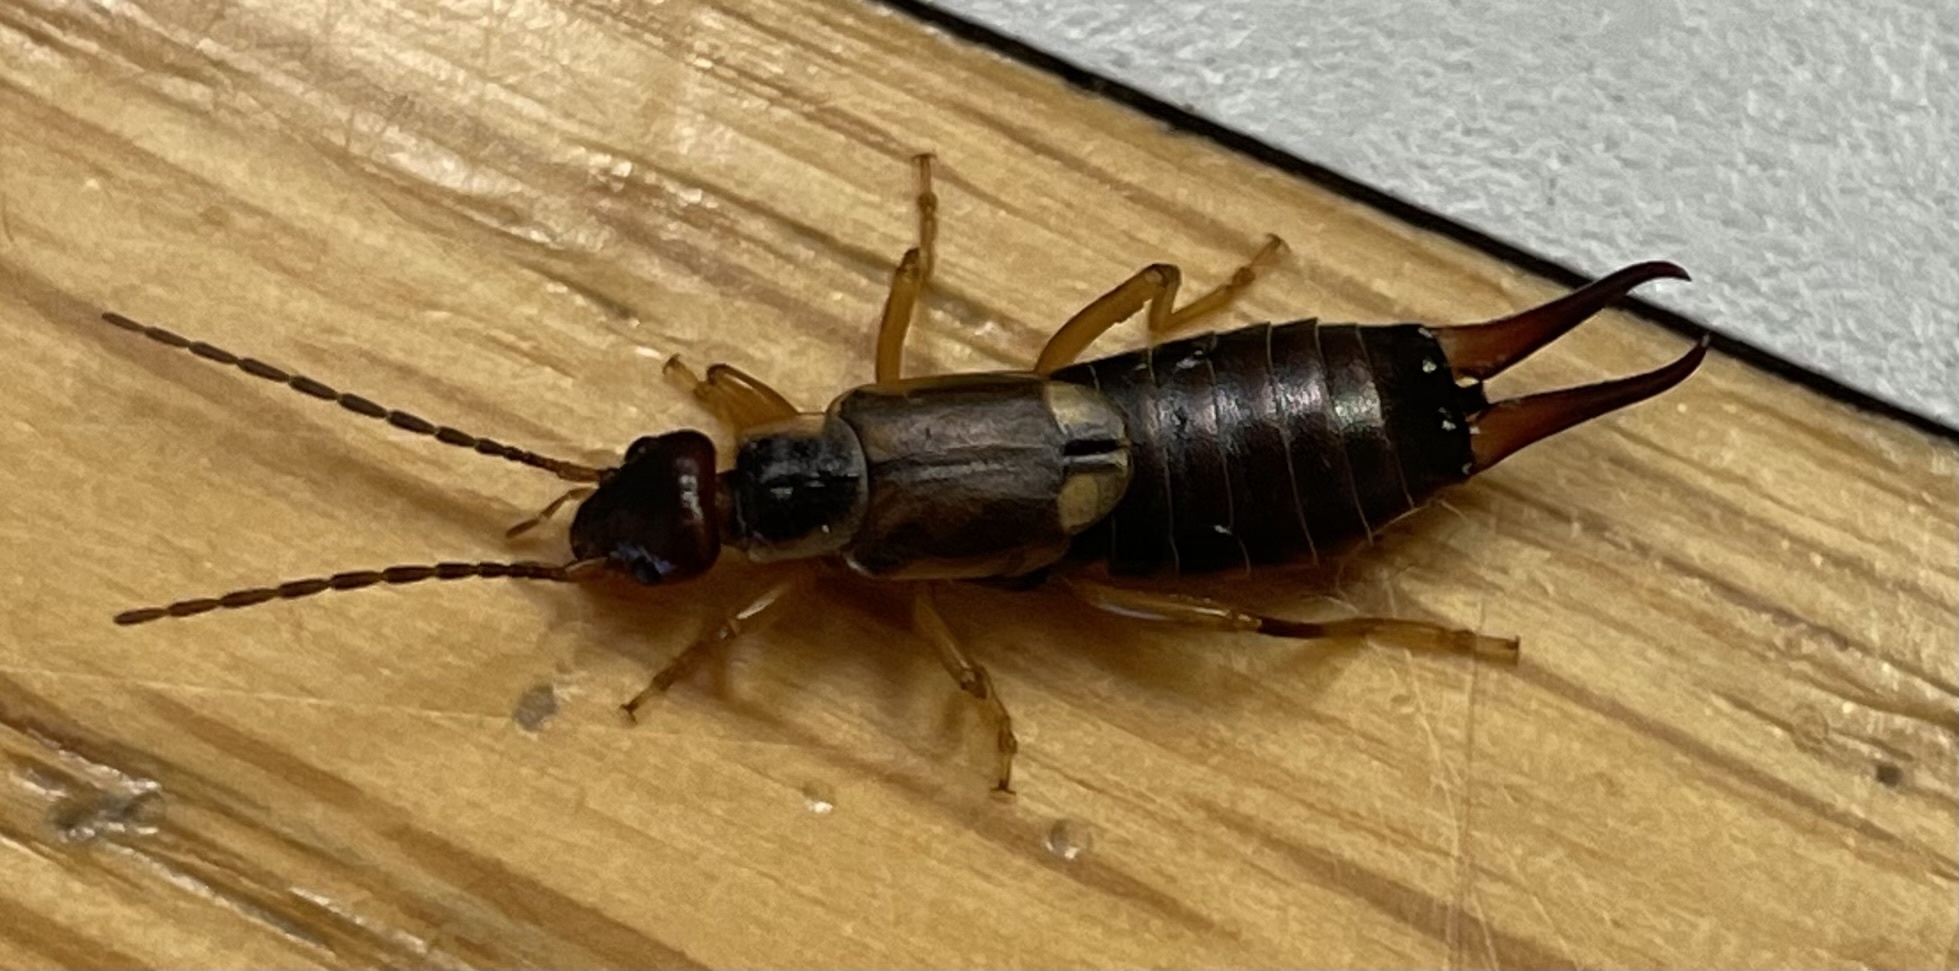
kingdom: Animalia
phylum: Arthropoda
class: Insecta
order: Dermaptera
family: Forficulidae
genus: Forficula
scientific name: Forficula
